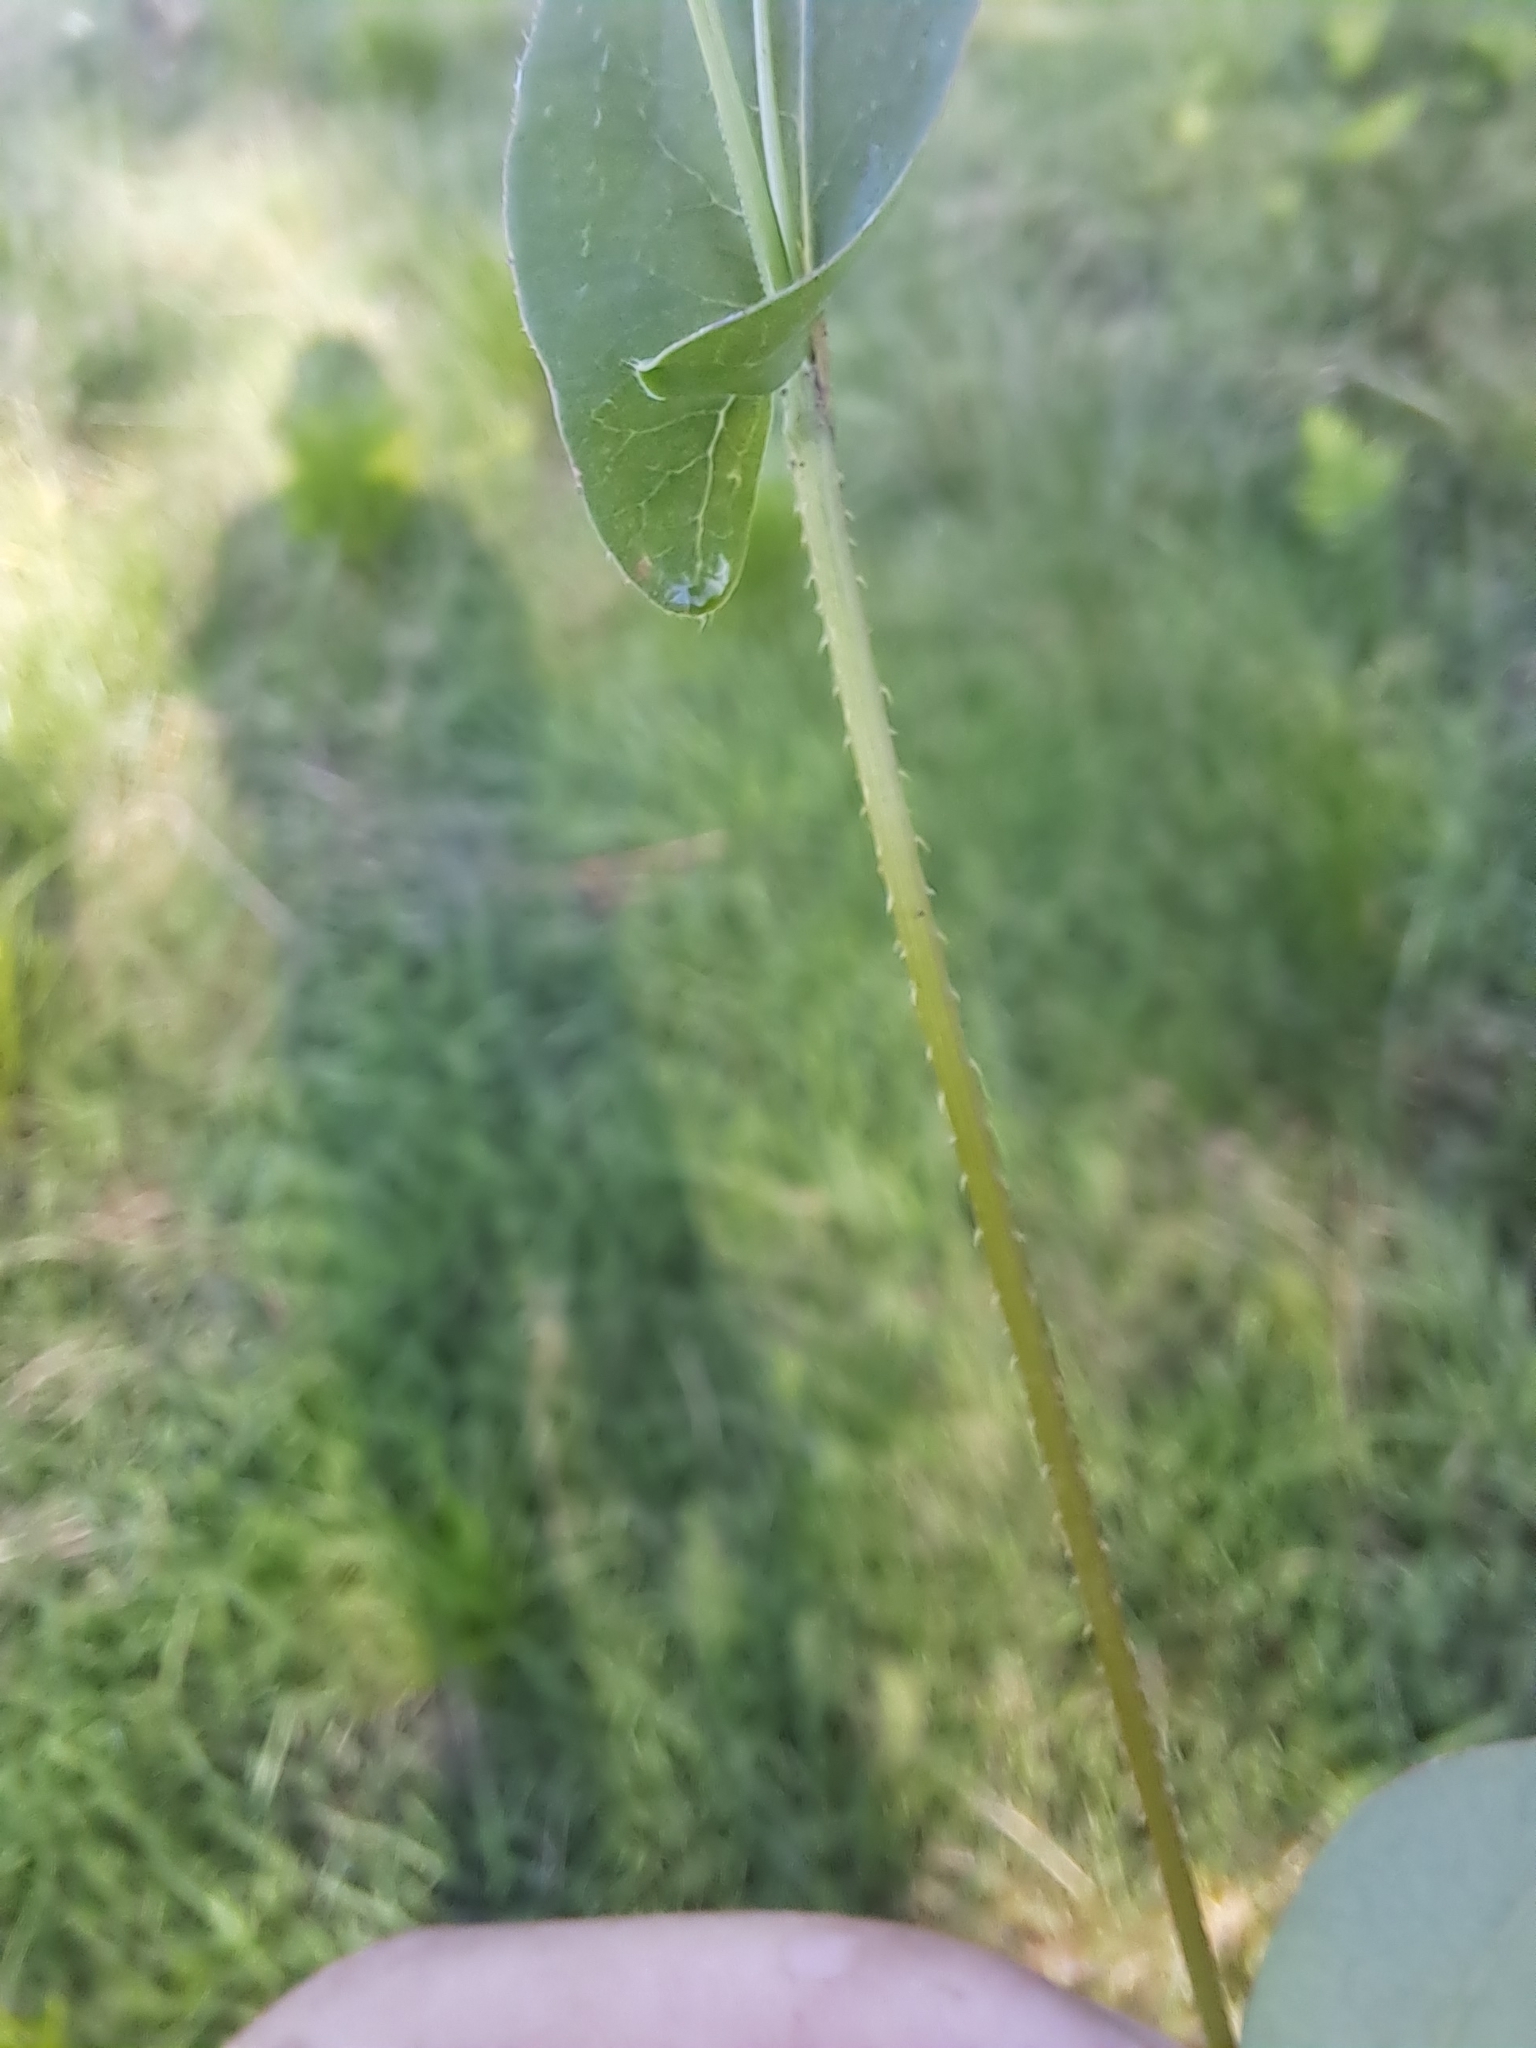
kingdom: Plantae
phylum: Tracheophyta
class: Magnoliopsida
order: Caryophyllales
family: Polygonaceae
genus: Persicaria
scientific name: Persicaria sagittata
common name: American tearthumb
